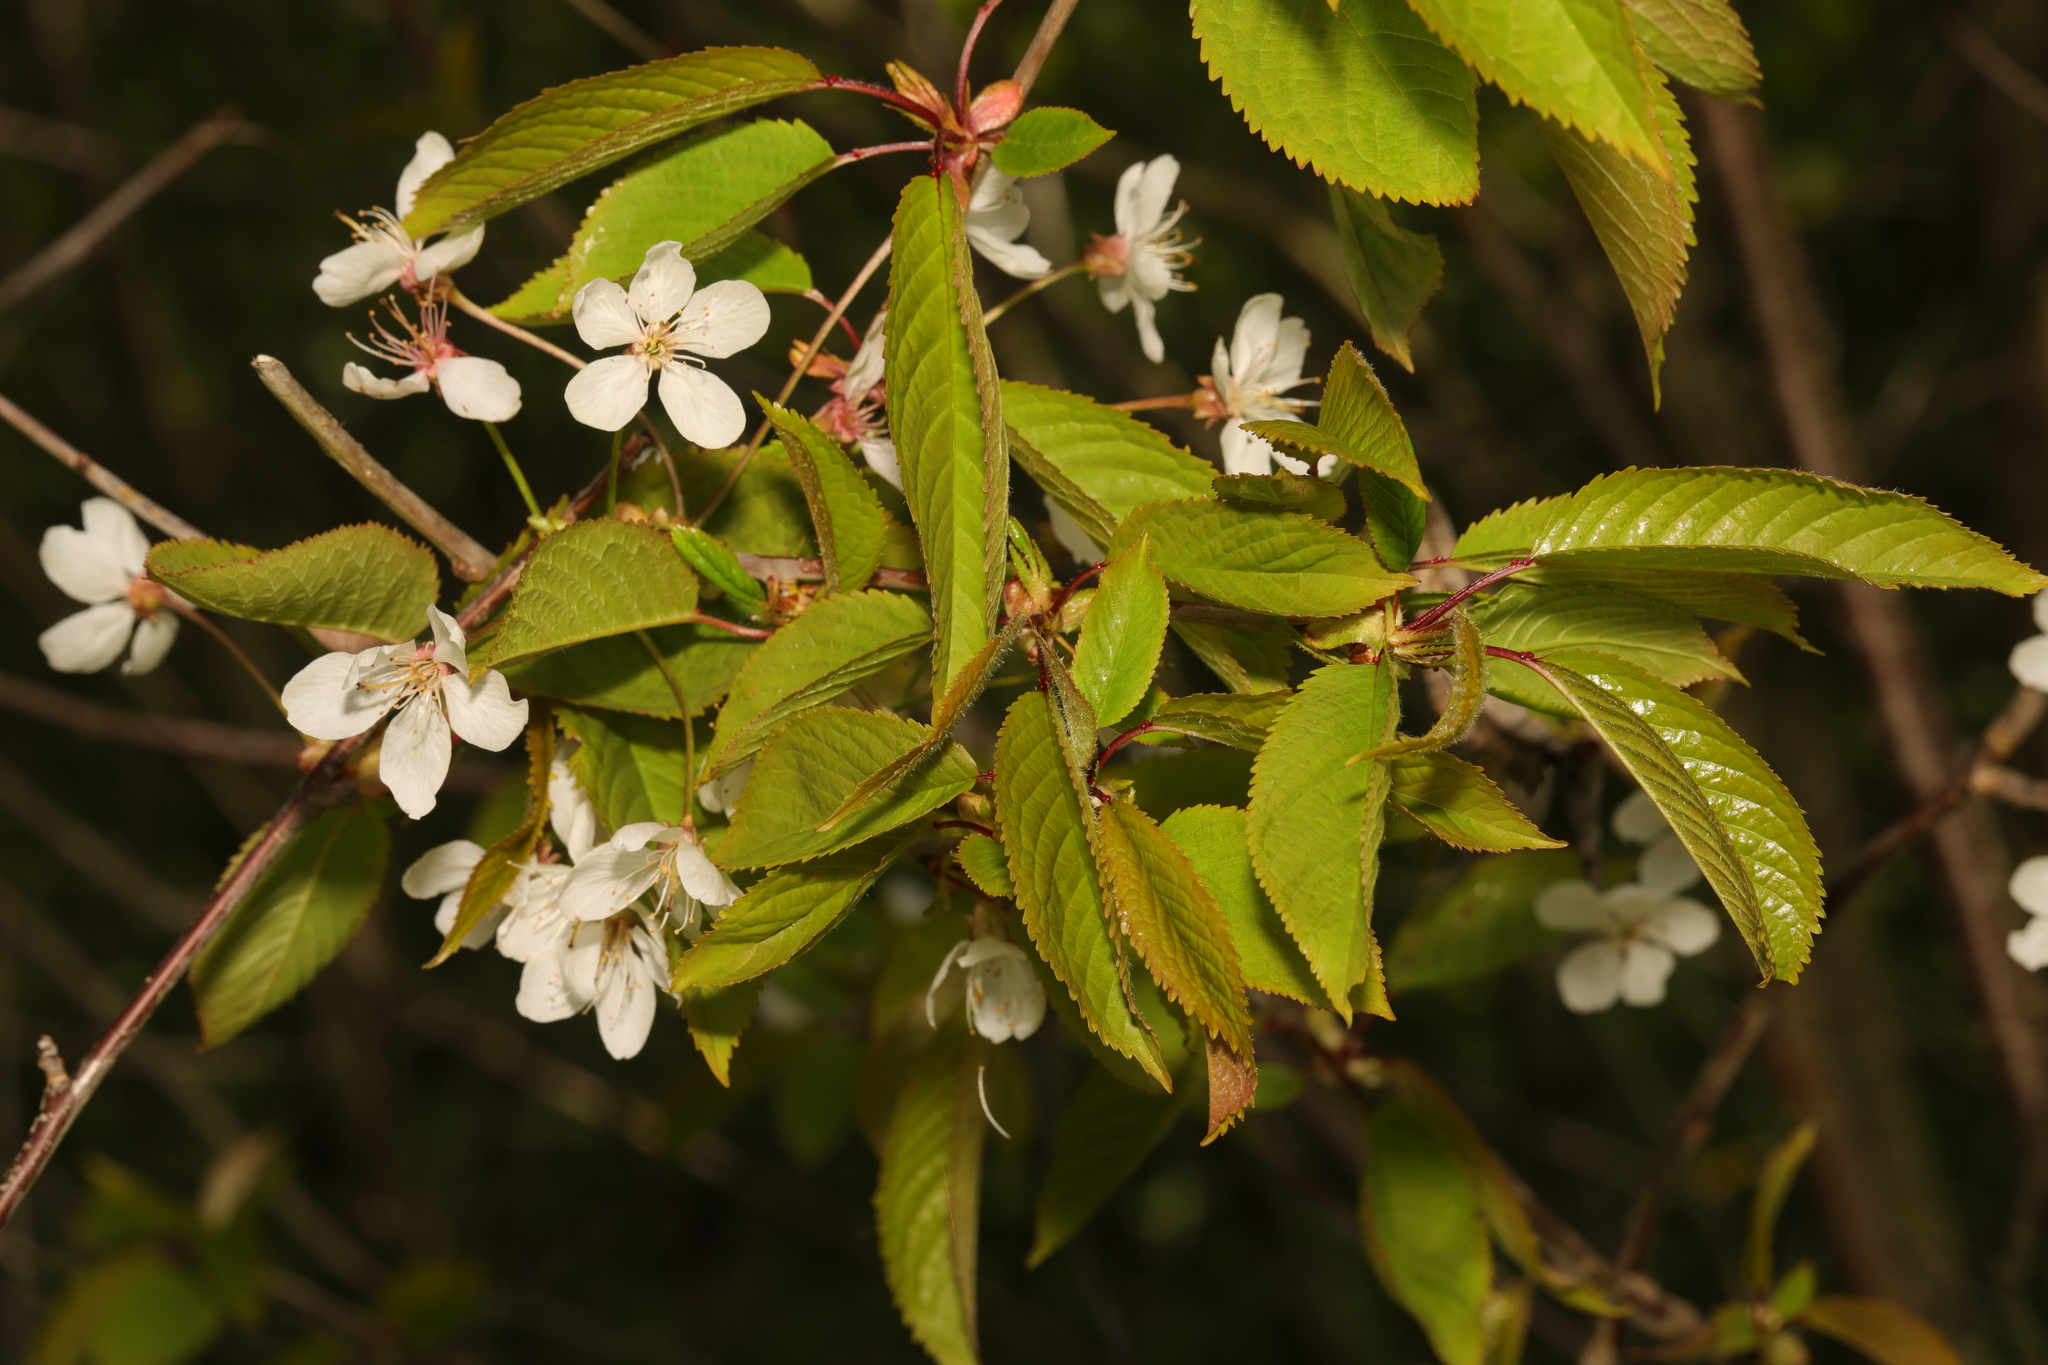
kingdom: Plantae
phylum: Tracheophyta
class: Magnoliopsida
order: Rosales
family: Rosaceae
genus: Prunus
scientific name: Prunus avium
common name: Sweet cherry
